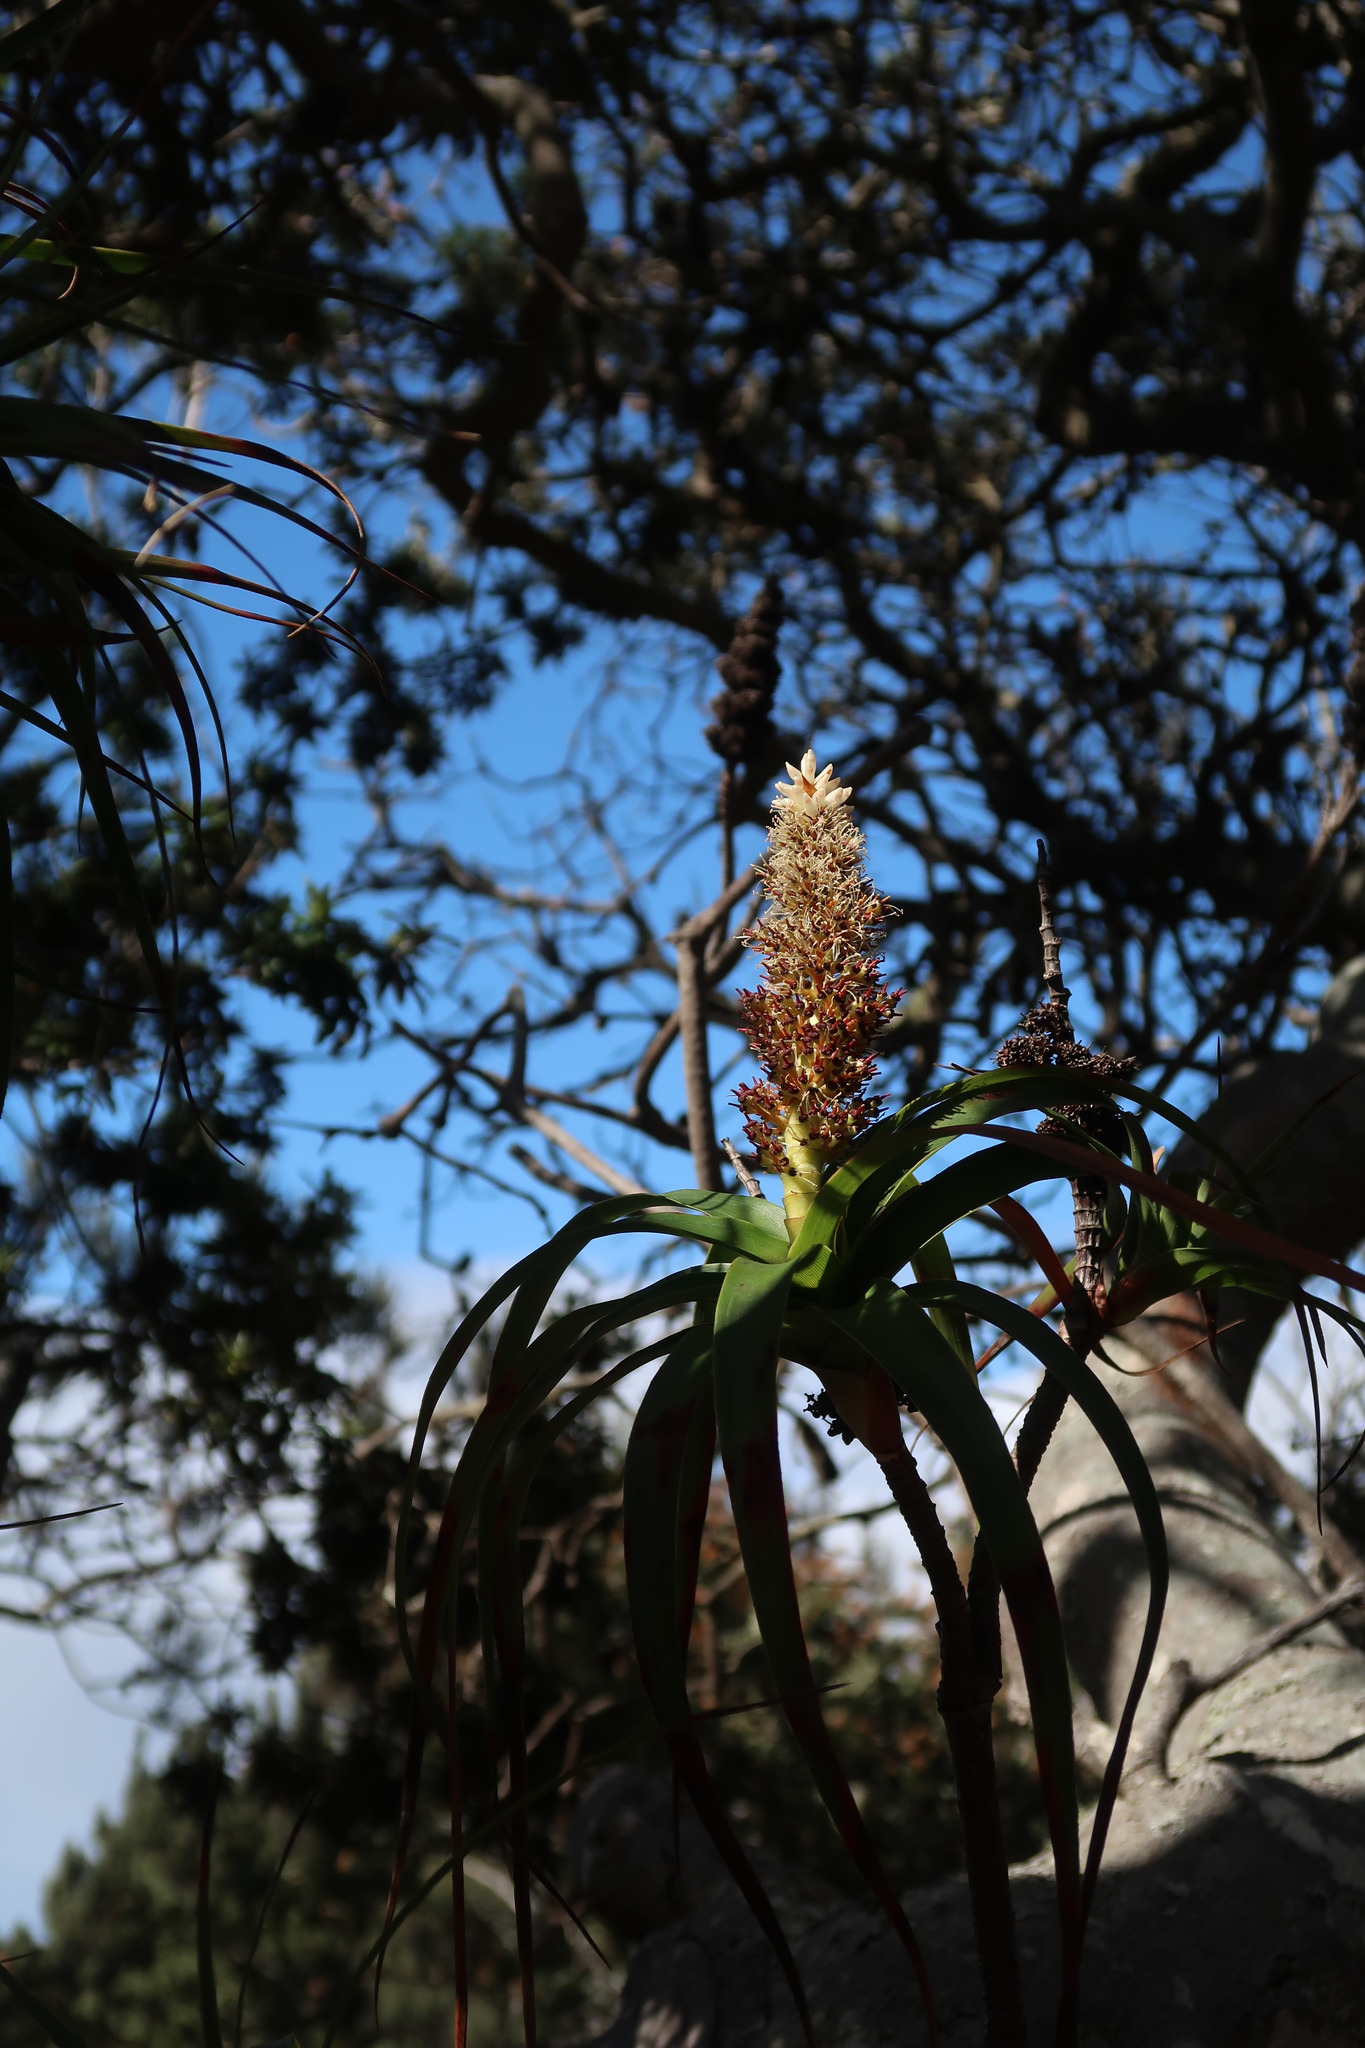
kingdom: Plantae
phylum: Tracheophyta
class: Magnoliopsida
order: Ericales
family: Ericaceae
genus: Dracophyllum
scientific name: Dracophyllum desgrazii
